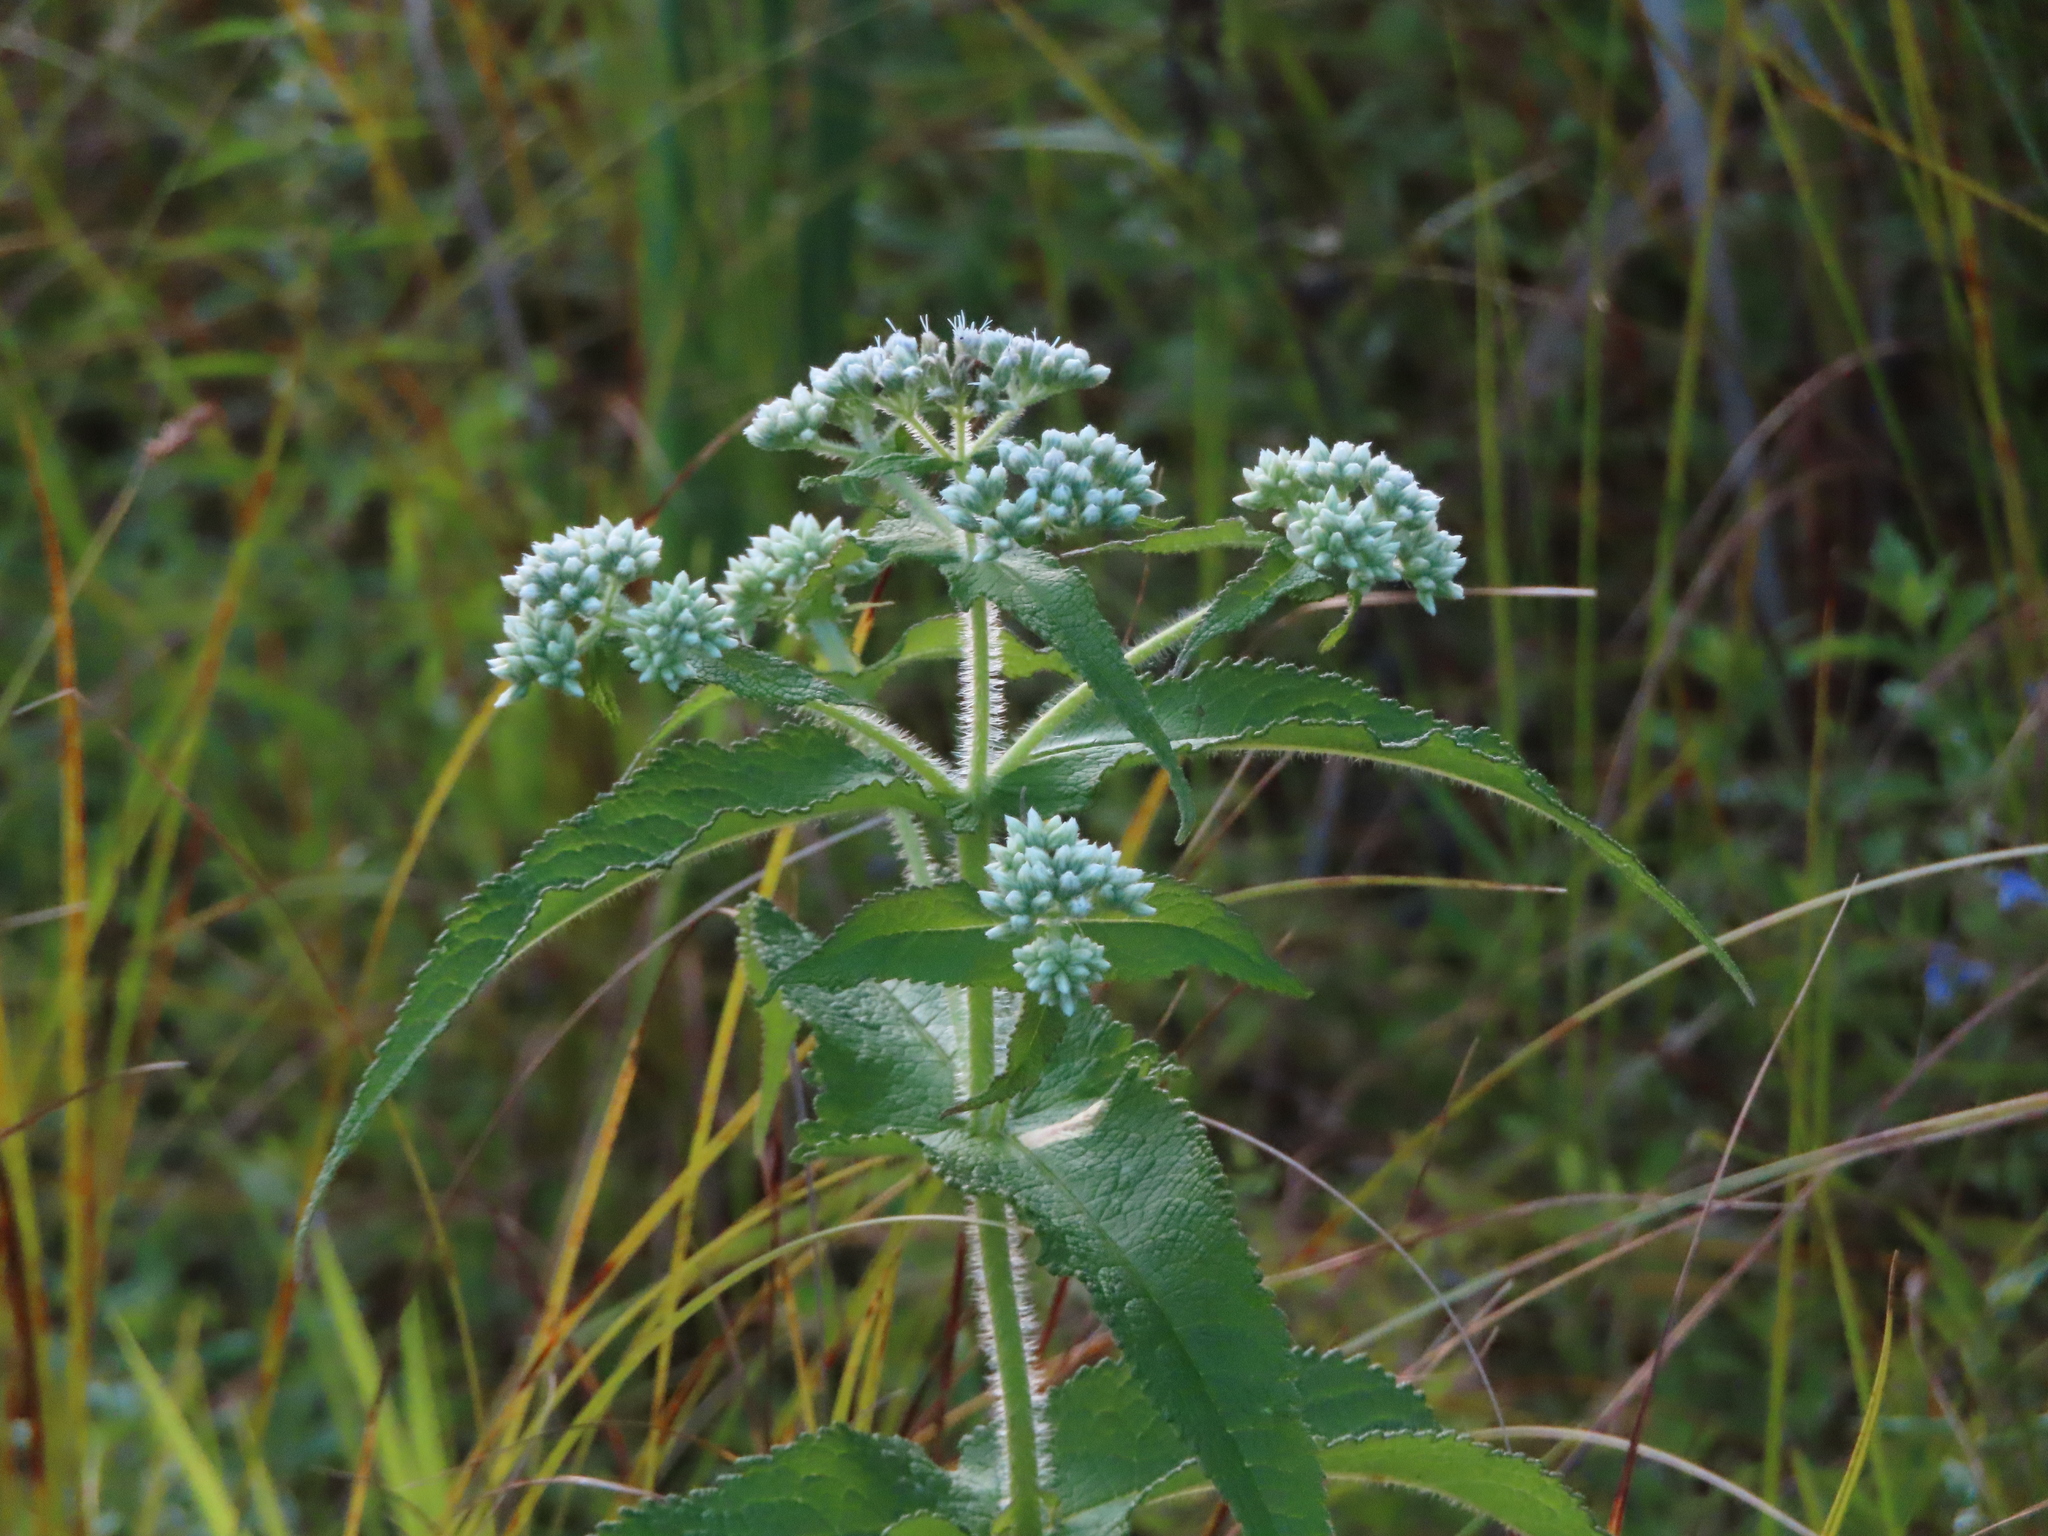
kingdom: Plantae
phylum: Tracheophyta
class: Magnoliopsida
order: Asterales
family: Asteraceae
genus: Eupatorium
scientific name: Eupatorium perfoliatum
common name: Boneset
